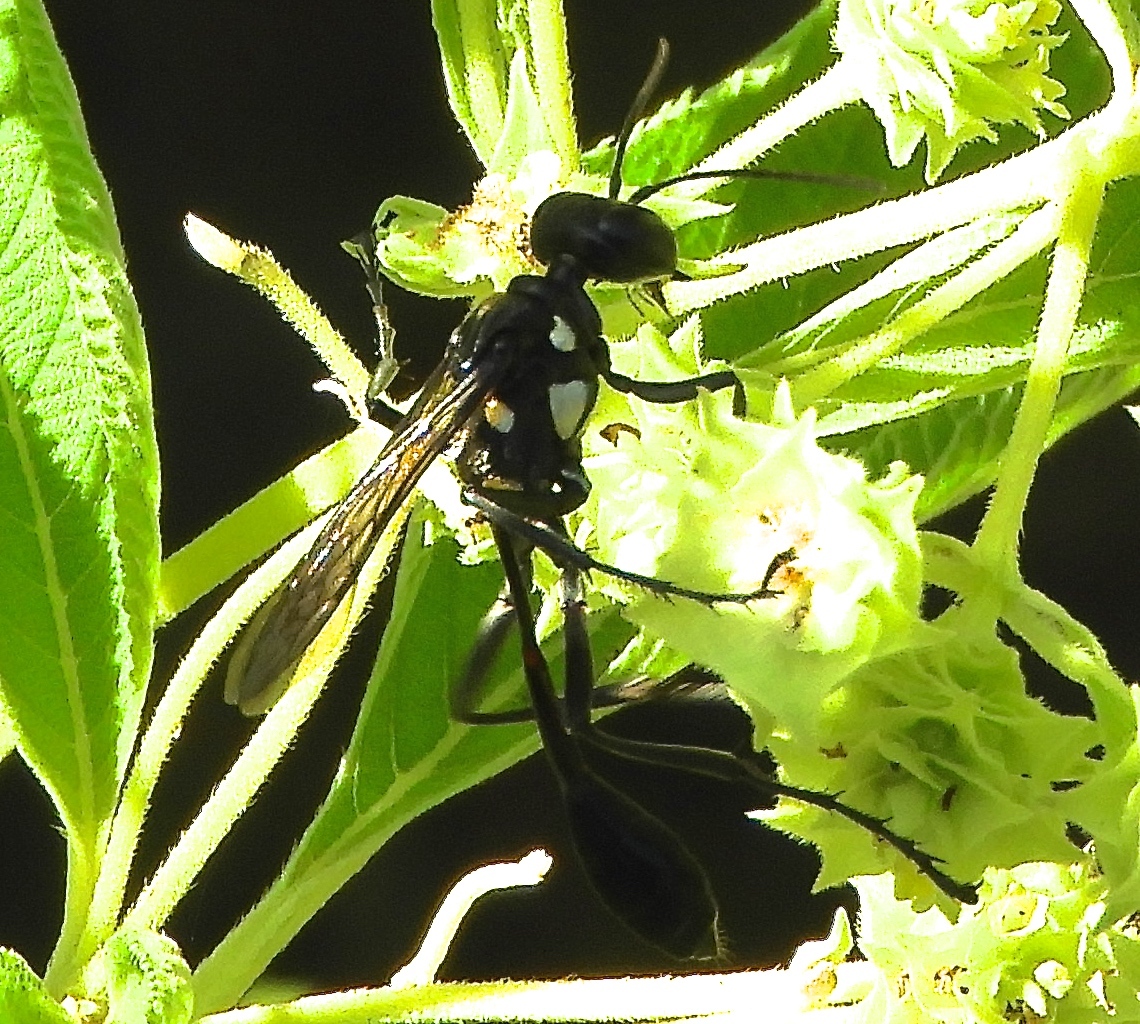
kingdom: Animalia
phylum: Arthropoda
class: Insecta
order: Hymenoptera
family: Sphecidae
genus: Eremnophila
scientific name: Eremnophila
